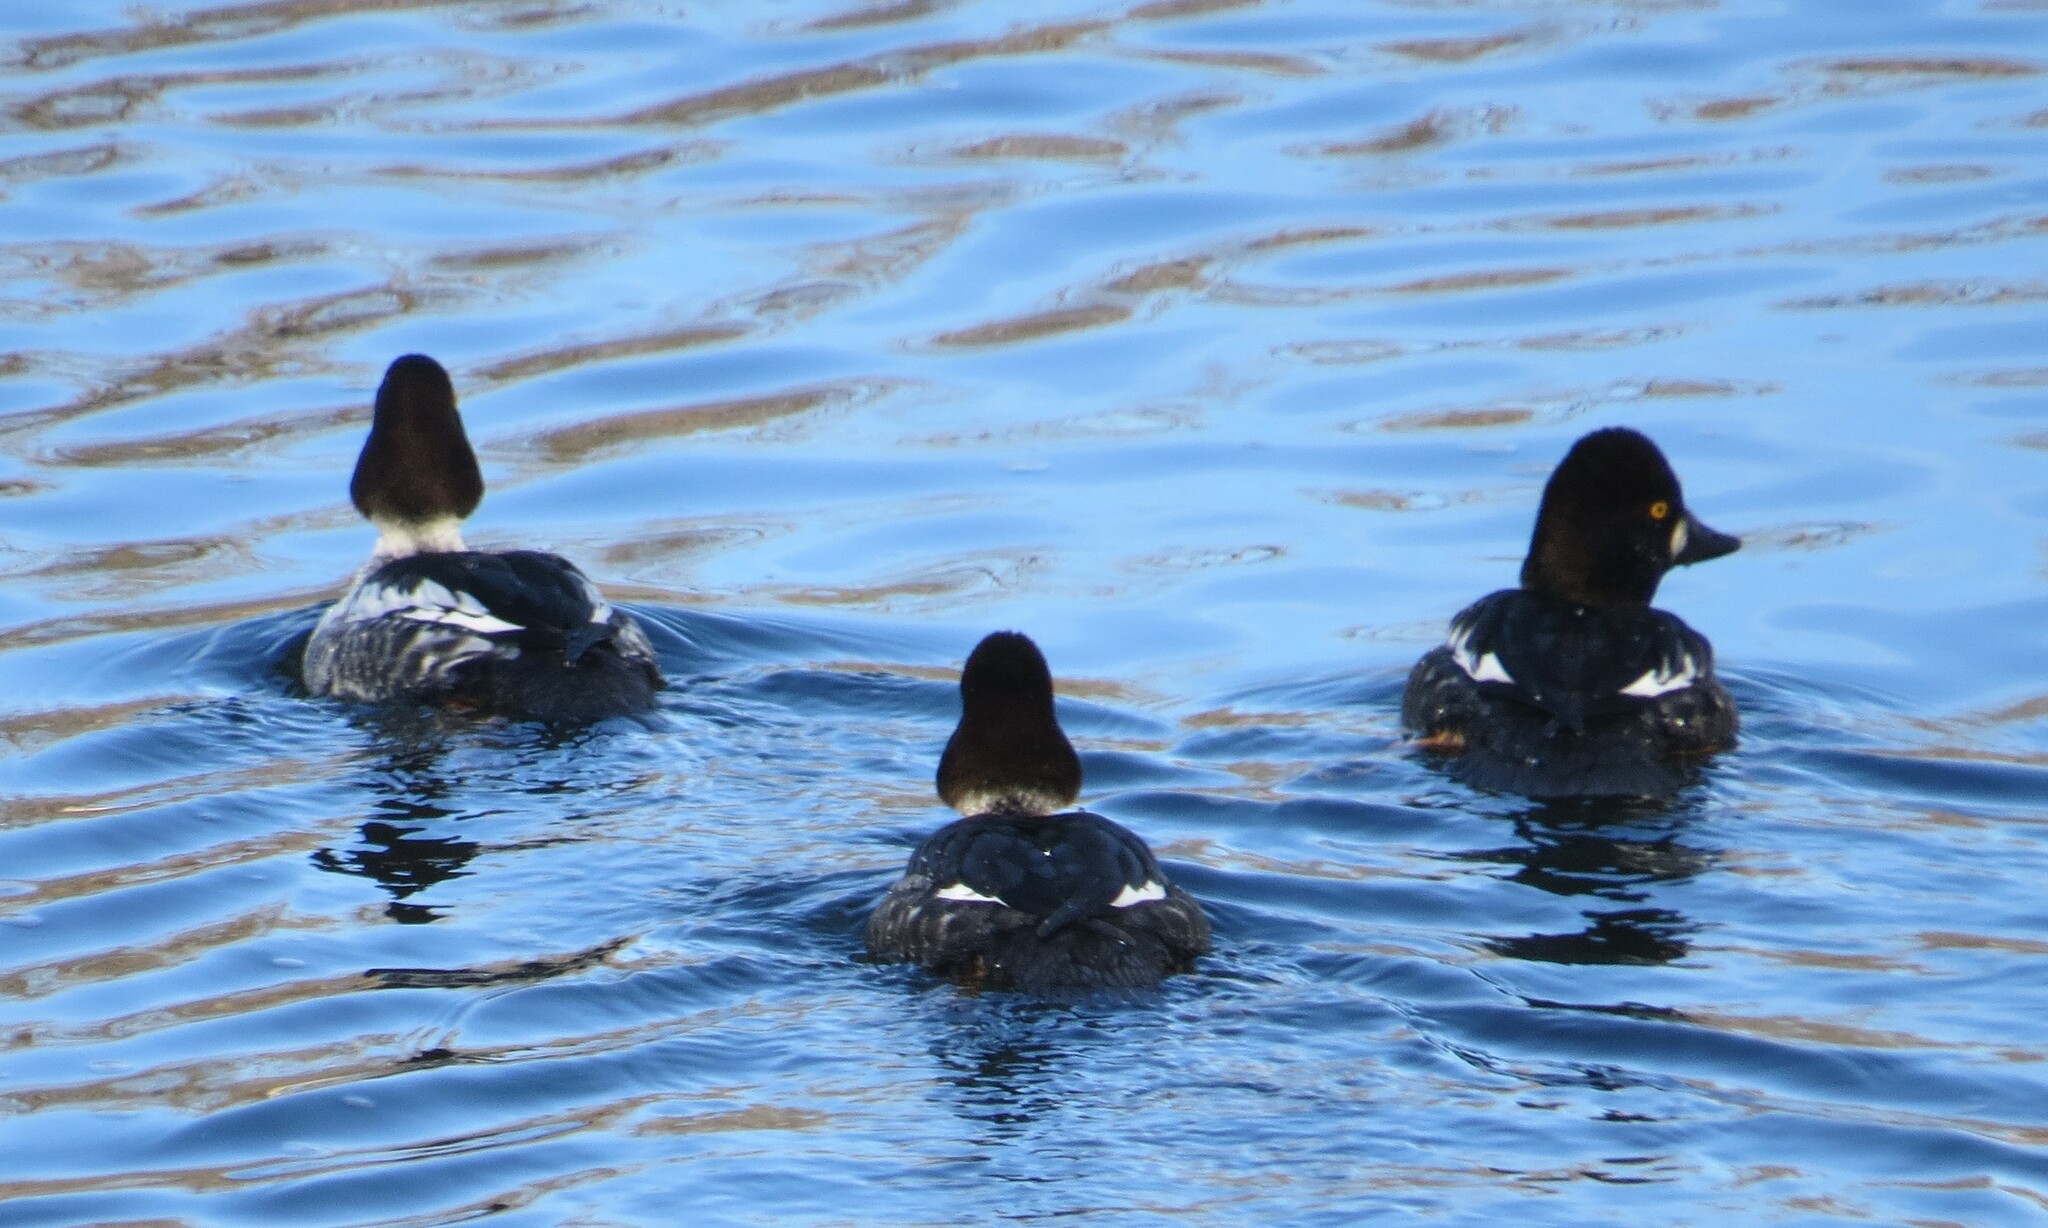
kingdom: Animalia
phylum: Chordata
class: Aves
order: Anseriformes
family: Anatidae
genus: Bucephala
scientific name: Bucephala clangula
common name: Common goldeneye
